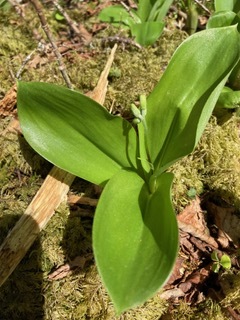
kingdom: Plantae
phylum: Tracheophyta
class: Liliopsida
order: Liliales
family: Liliaceae
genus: Clintonia
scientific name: Clintonia borealis
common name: Yellow clintonia
